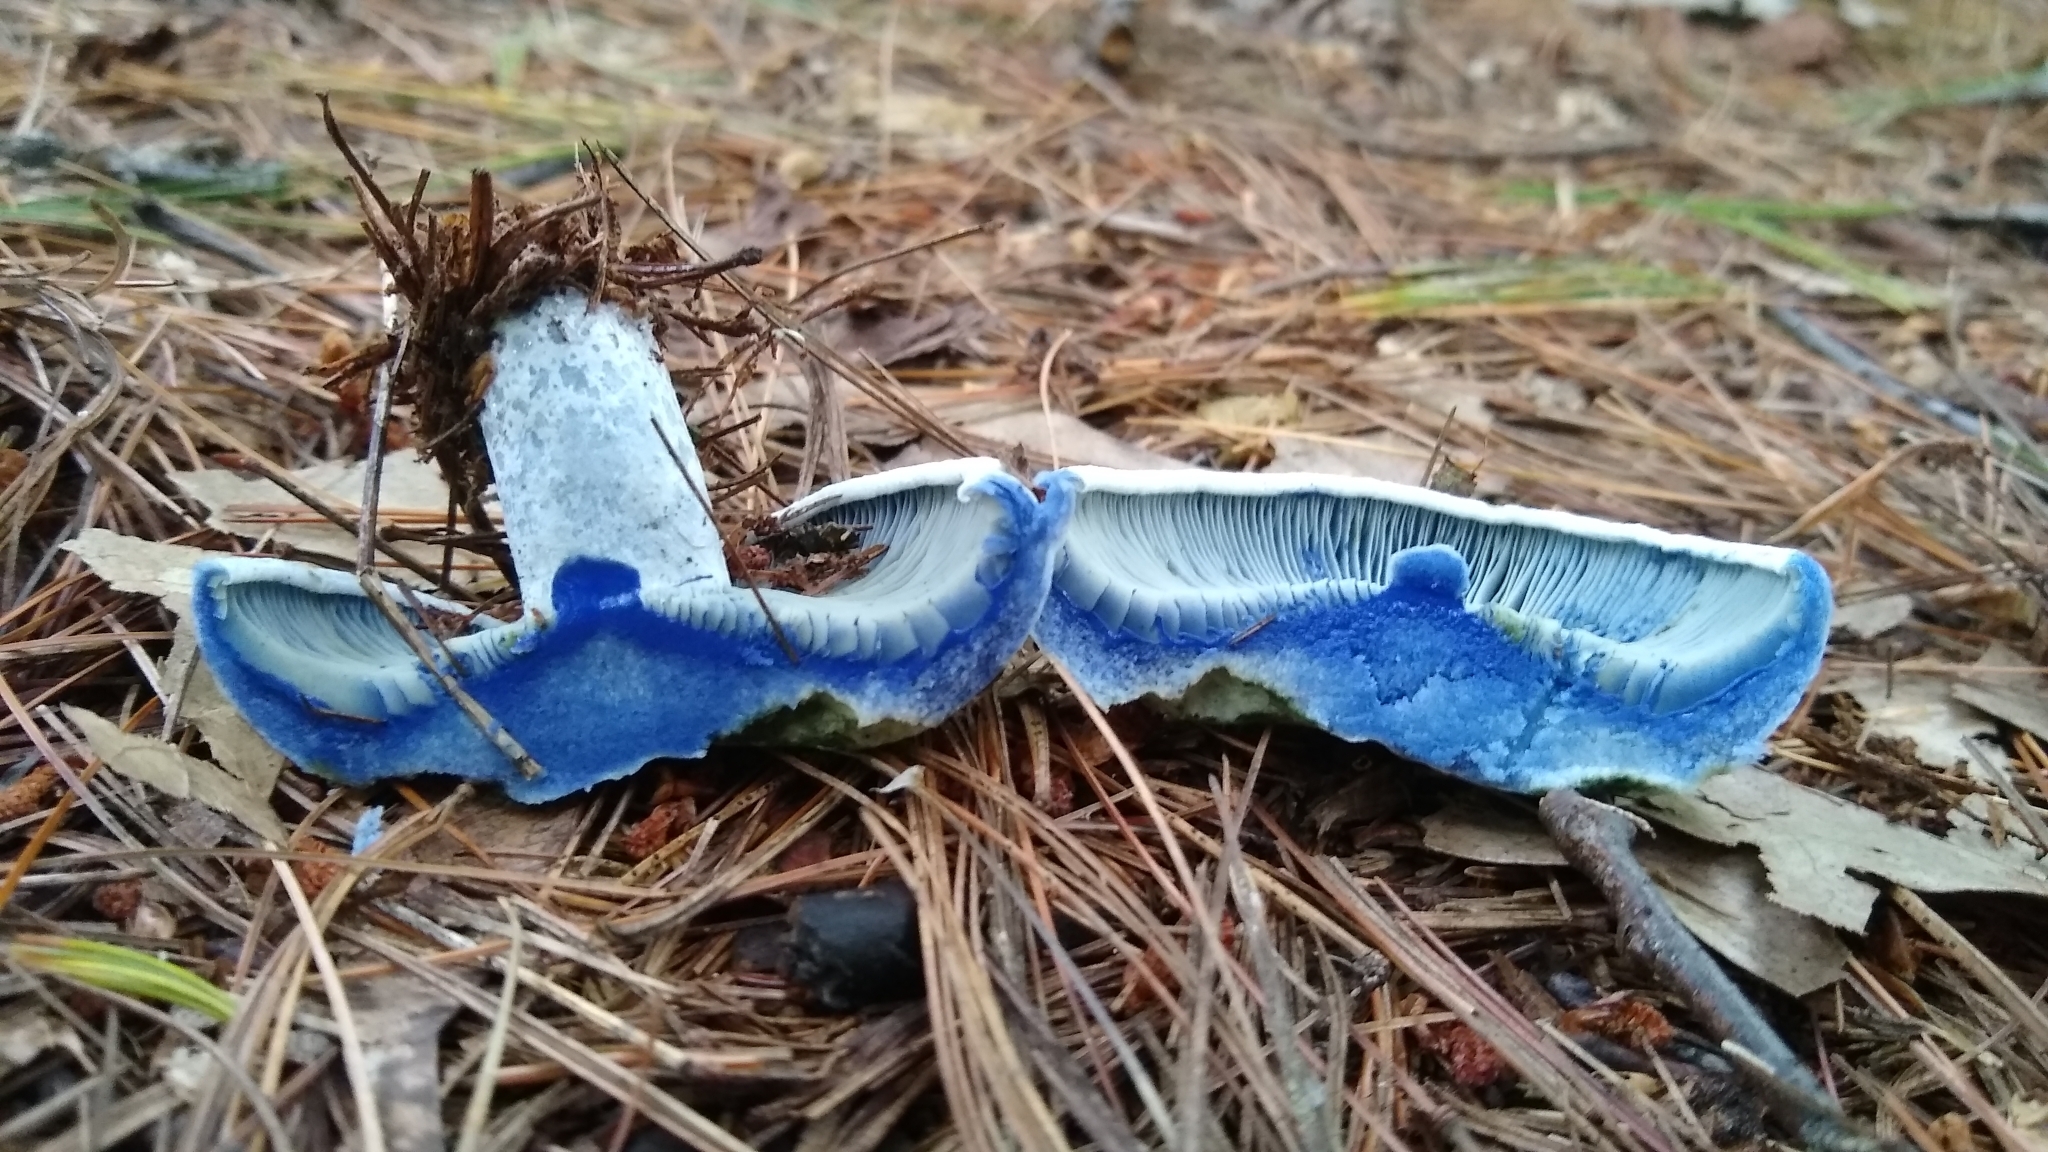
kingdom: Fungi
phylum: Basidiomycota
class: Agaricomycetes
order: Russulales
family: Russulaceae
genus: Lactarius
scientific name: Lactarius indigo
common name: Indigo milk cap
